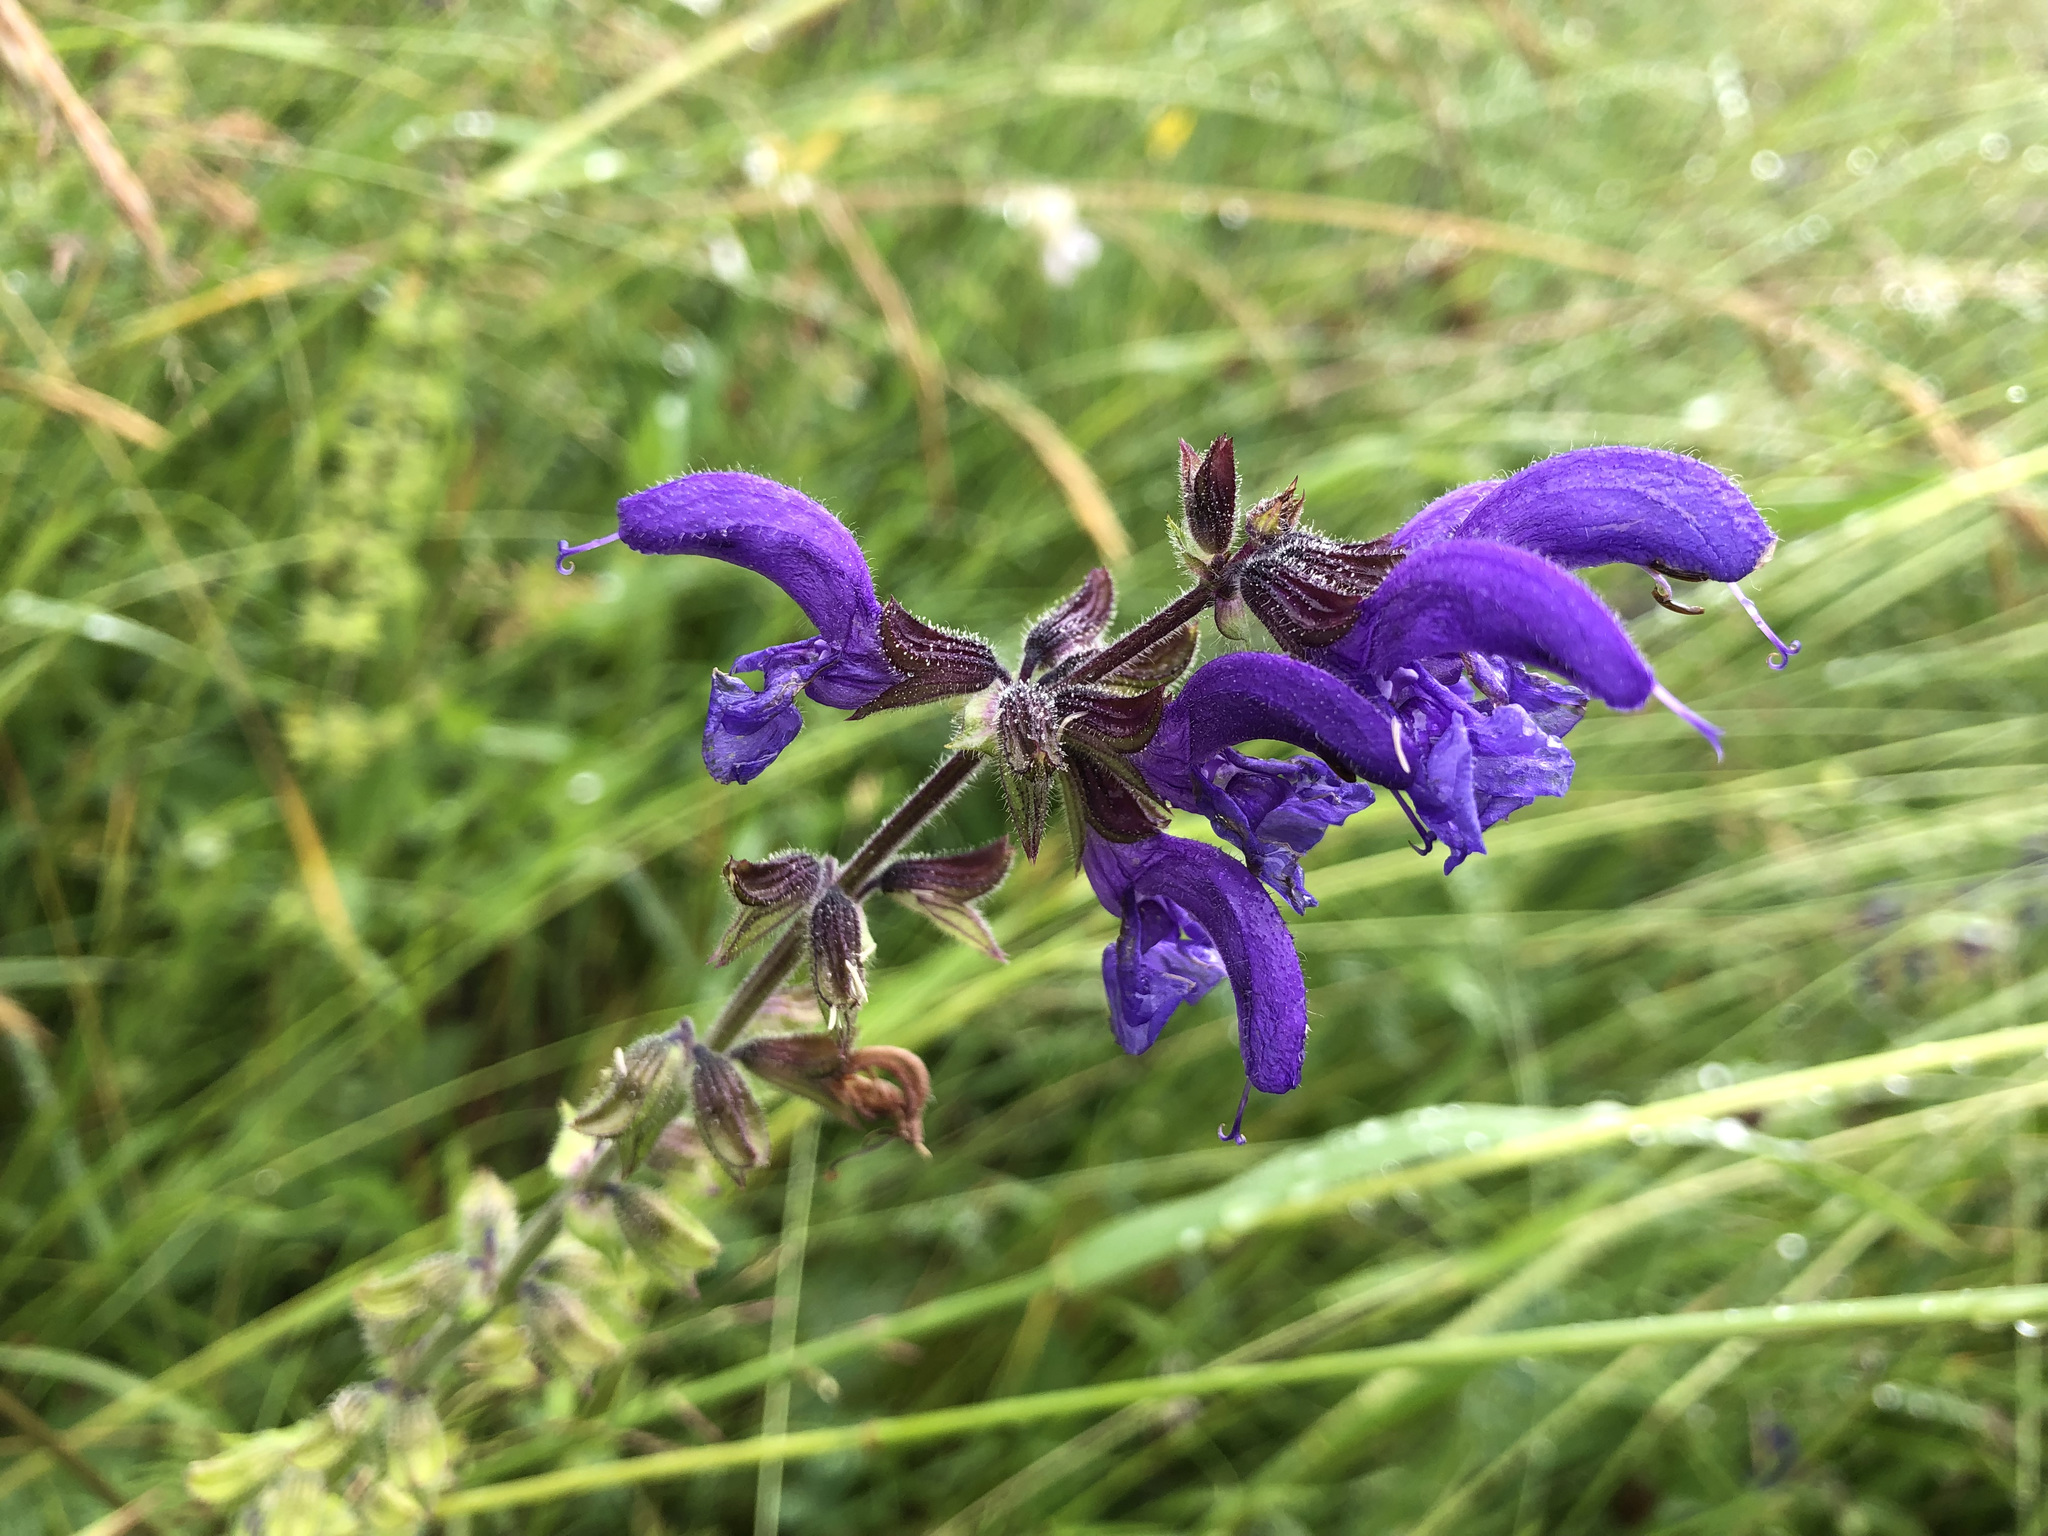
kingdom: Plantae
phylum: Tracheophyta
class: Magnoliopsida
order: Lamiales
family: Lamiaceae
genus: Salvia
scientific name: Salvia pratensis
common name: Meadow sage
